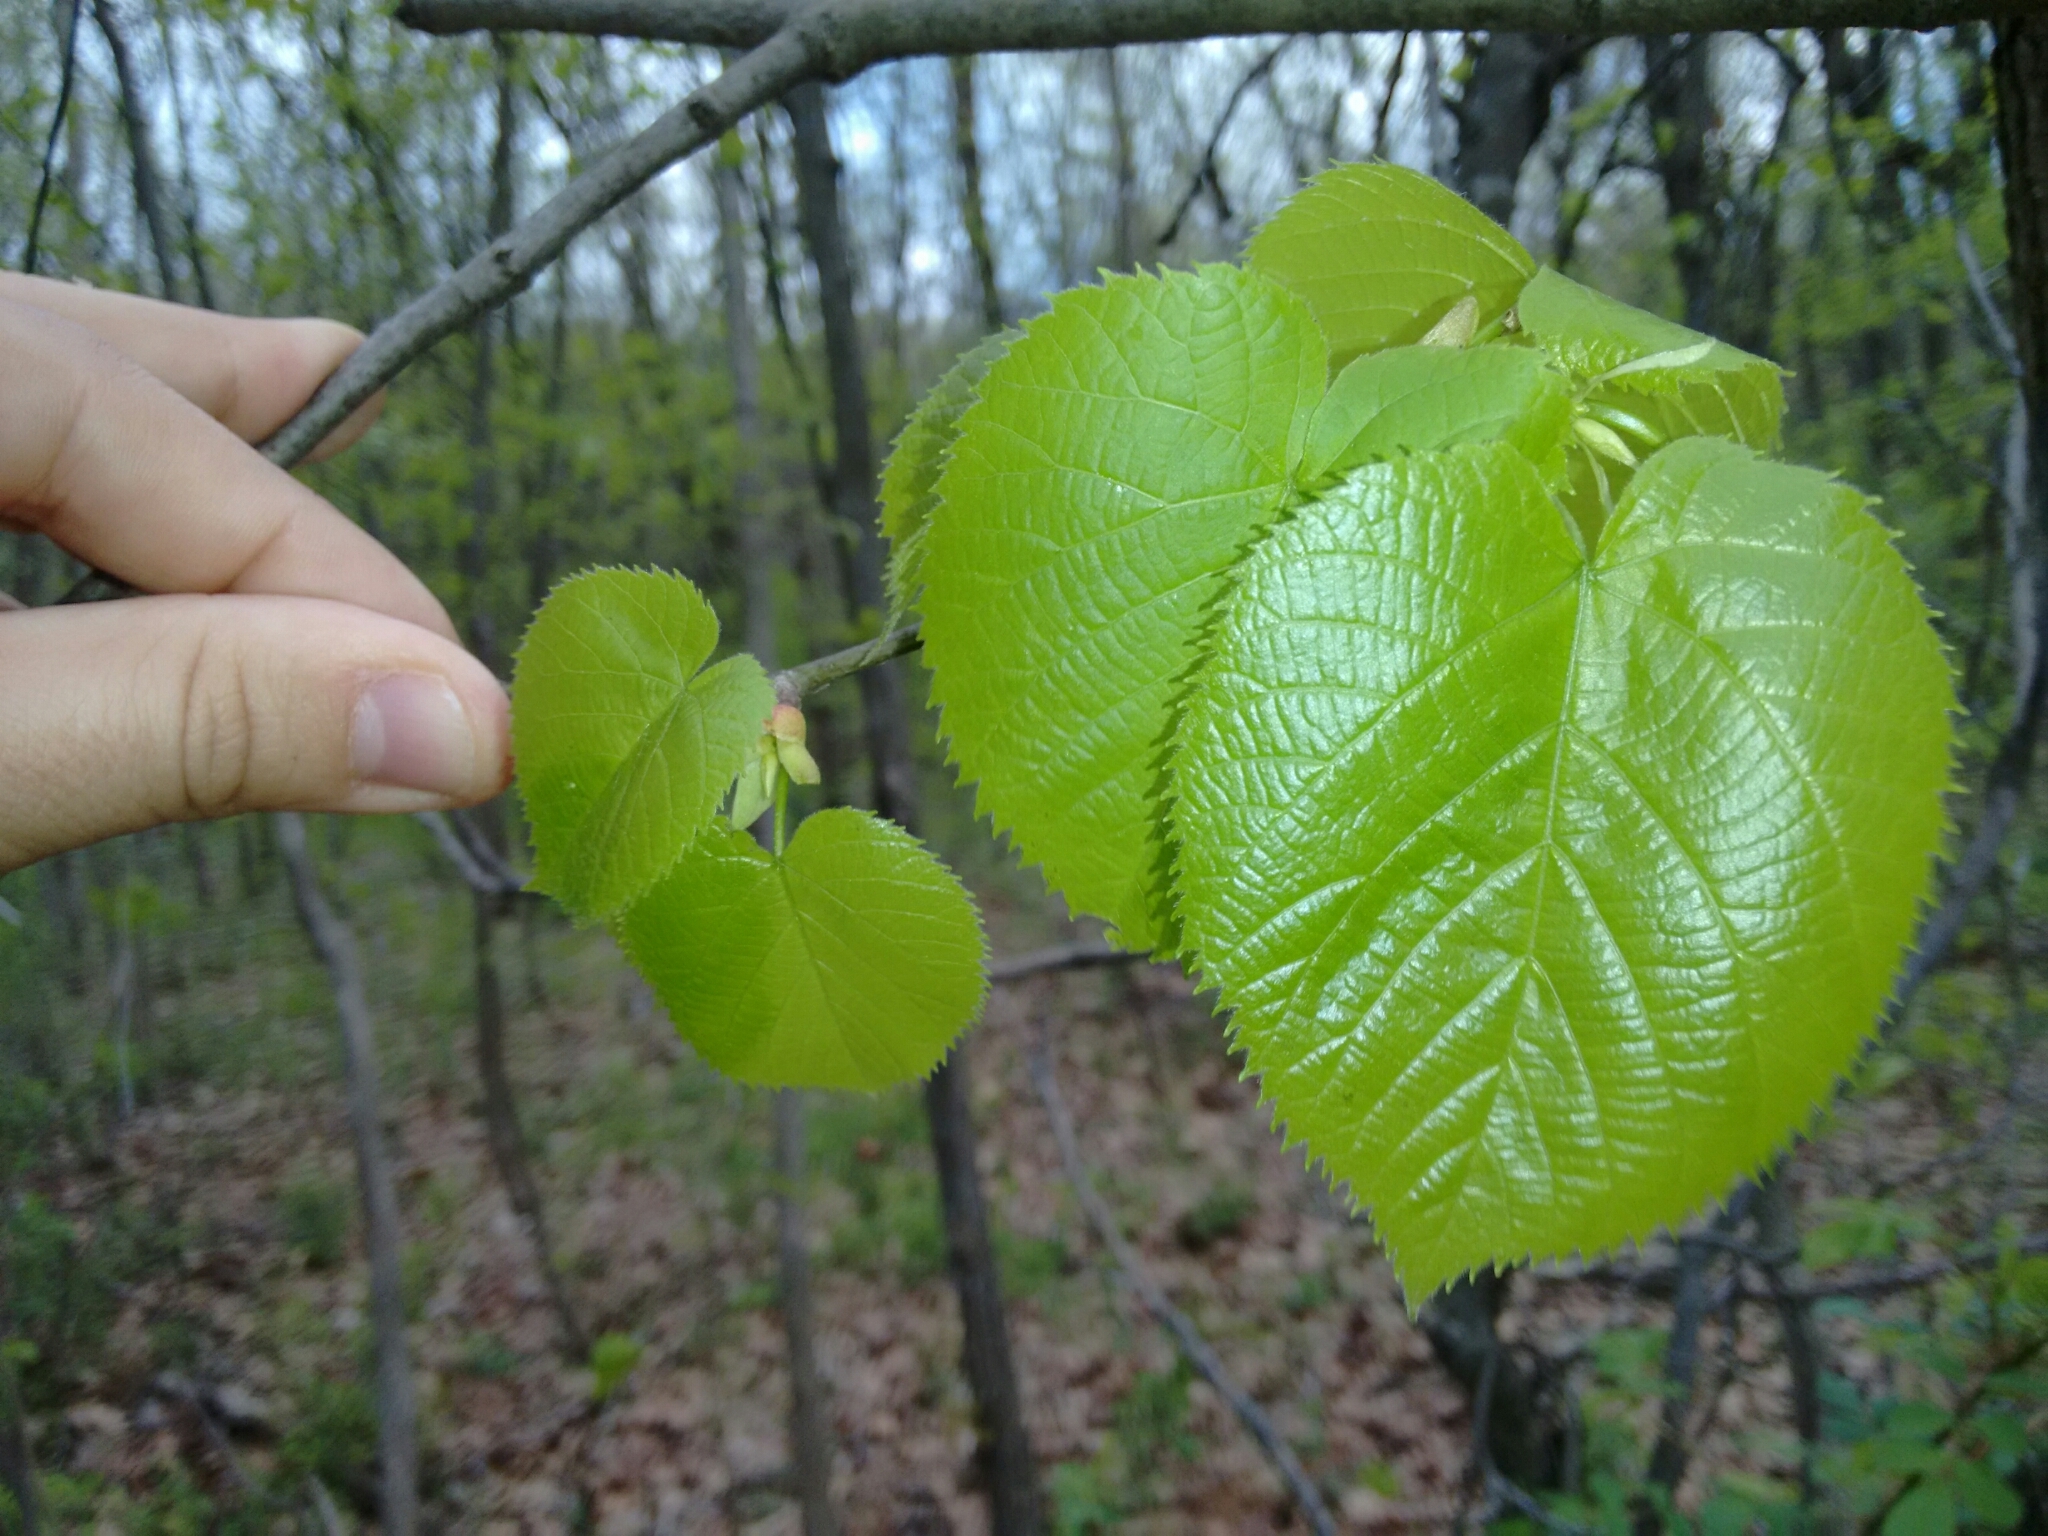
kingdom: Plantae
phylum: Tracheophyta
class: Magnoliopsida
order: Malvales
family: Malvaceae
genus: Tilia
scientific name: Tilia americana
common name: Basswood
